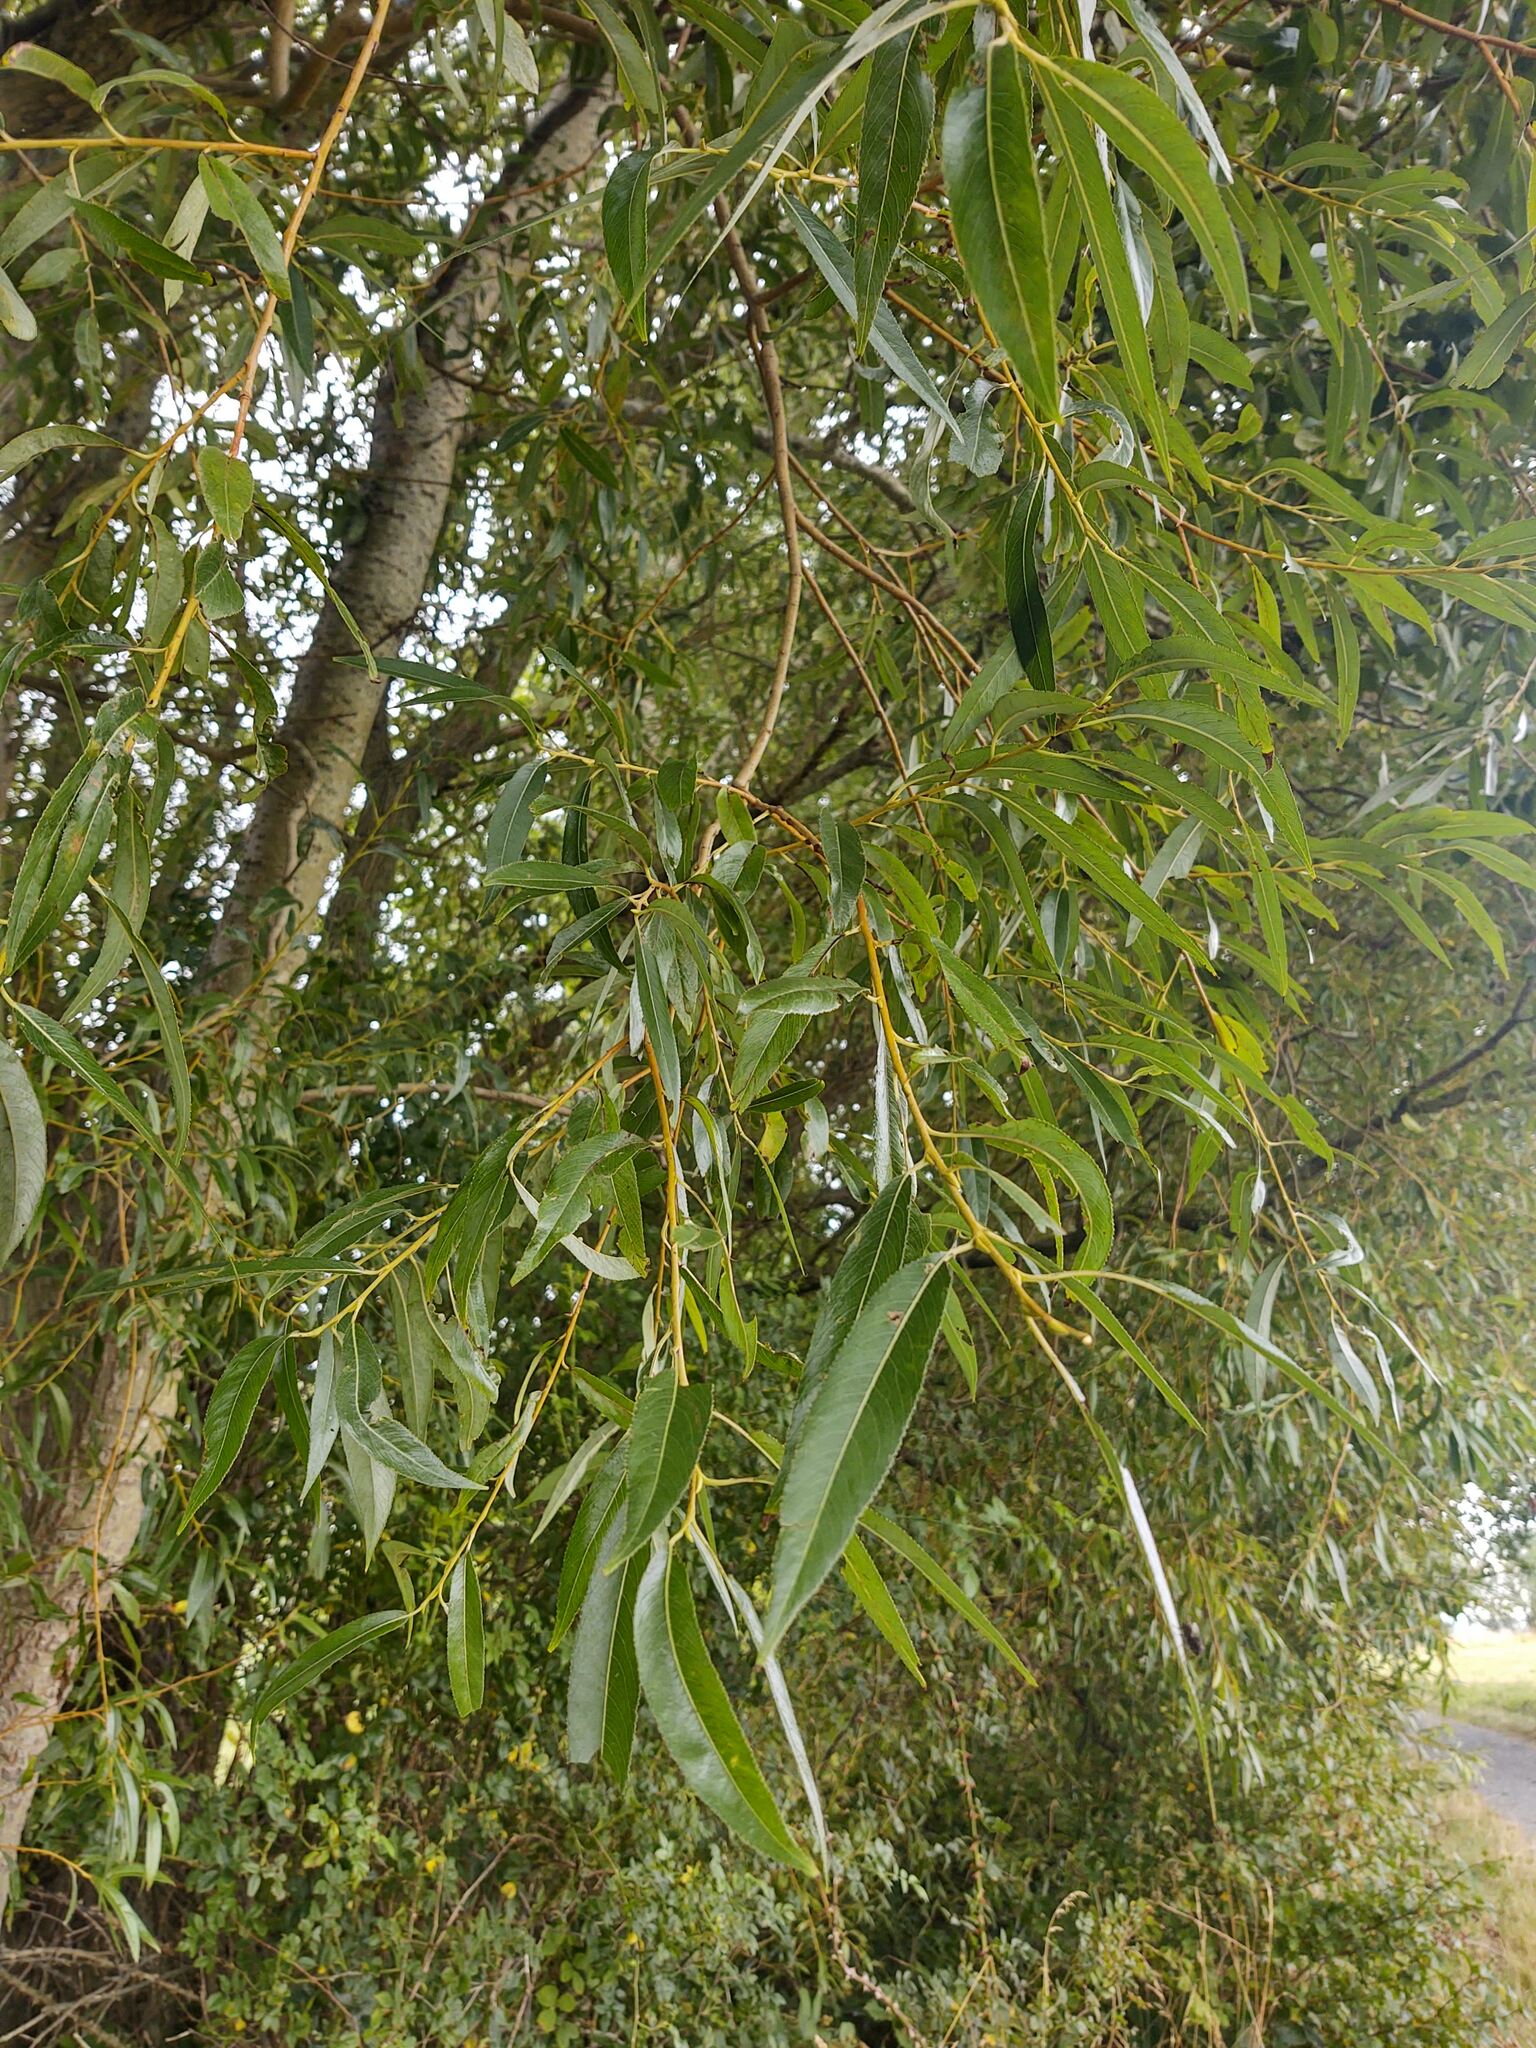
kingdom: Plantae
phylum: Tracheophyta
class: Magnoliopsida
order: Malpighiales
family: Salicaceae
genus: Salix
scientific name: Salix viminalis
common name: Osier
